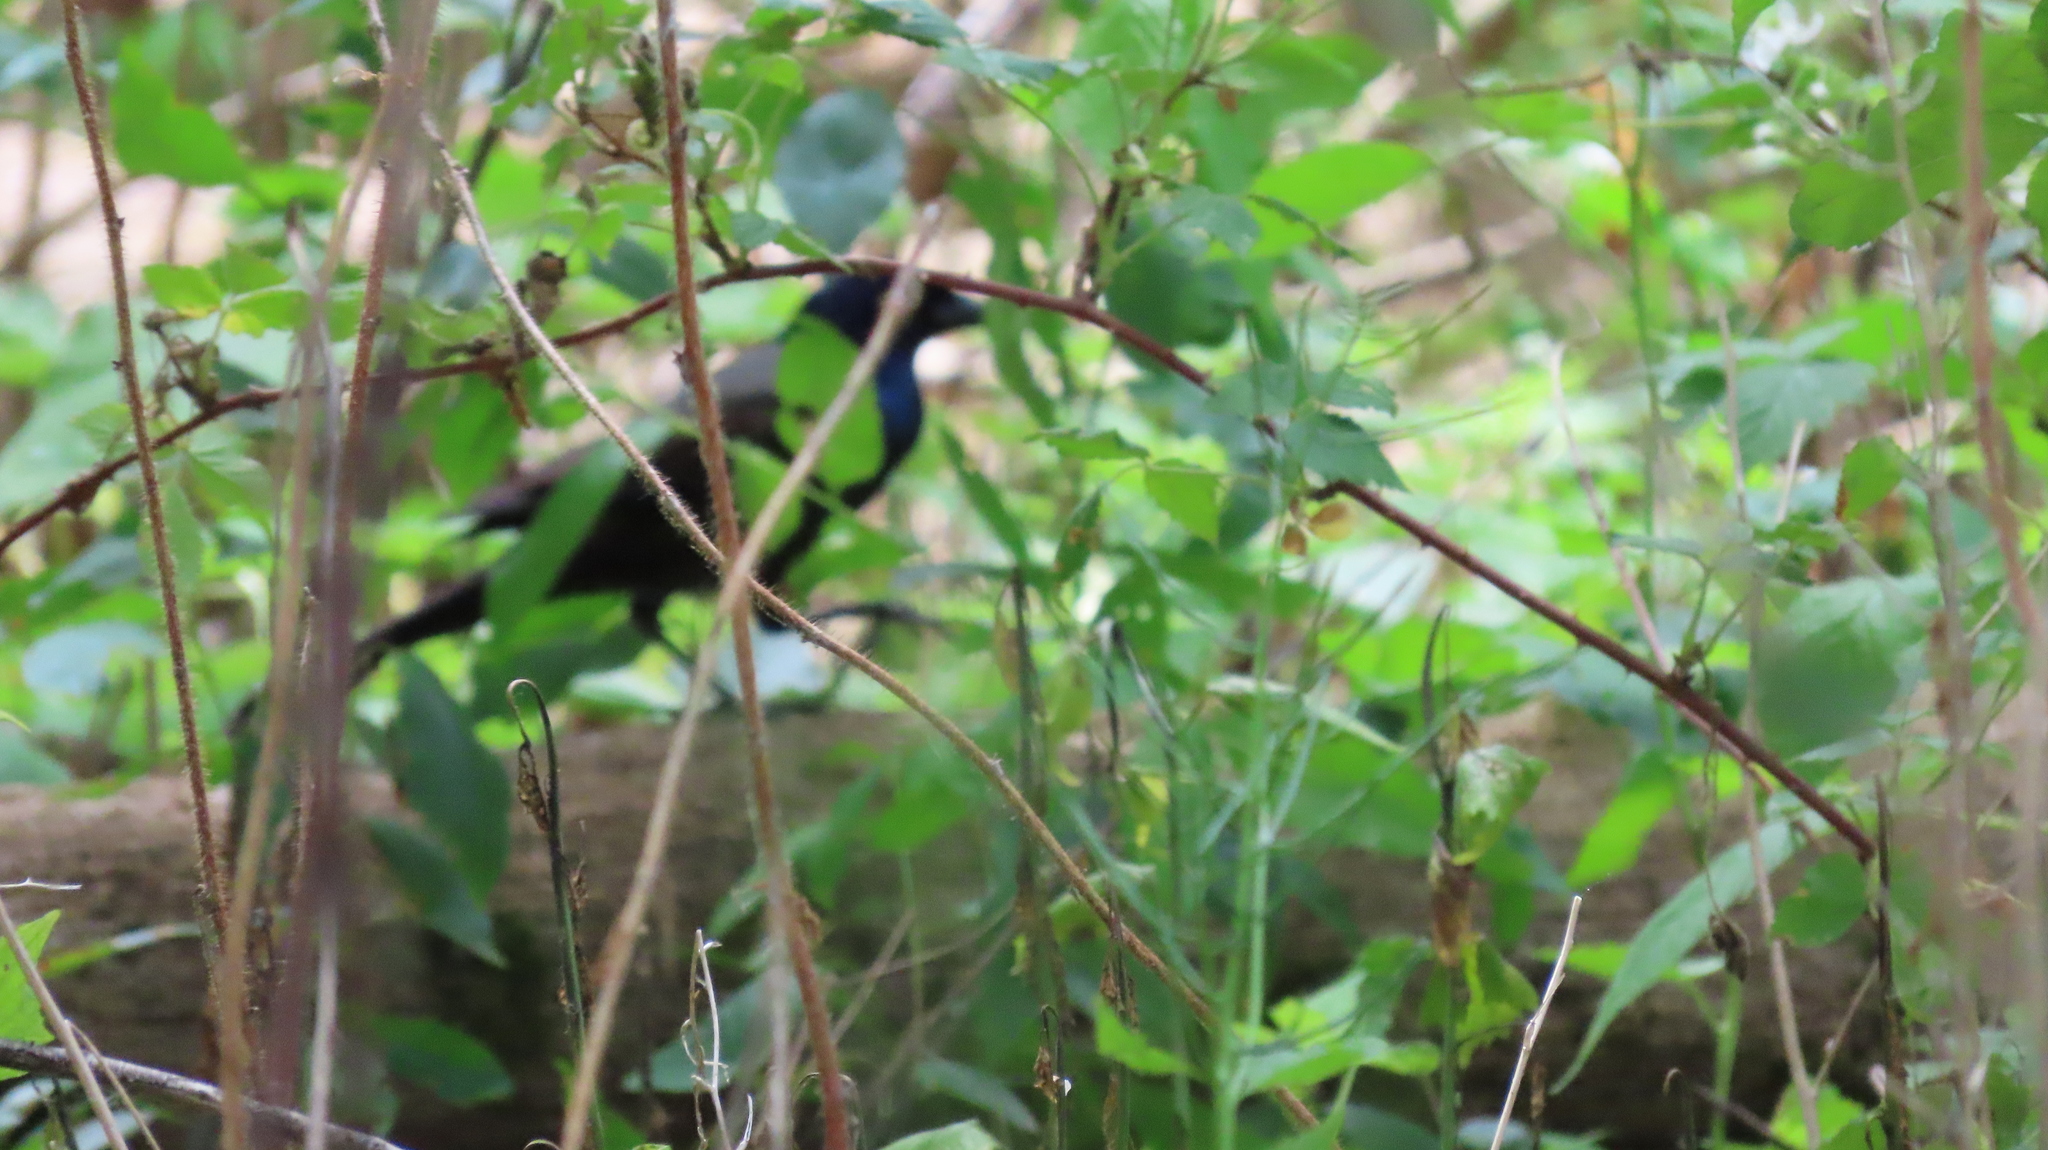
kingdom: Animalia
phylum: Chordata
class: Aves
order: Passeriformes
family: Icteridae
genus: Quiscalus
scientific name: Quiscalus quiscula
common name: Common grackle
